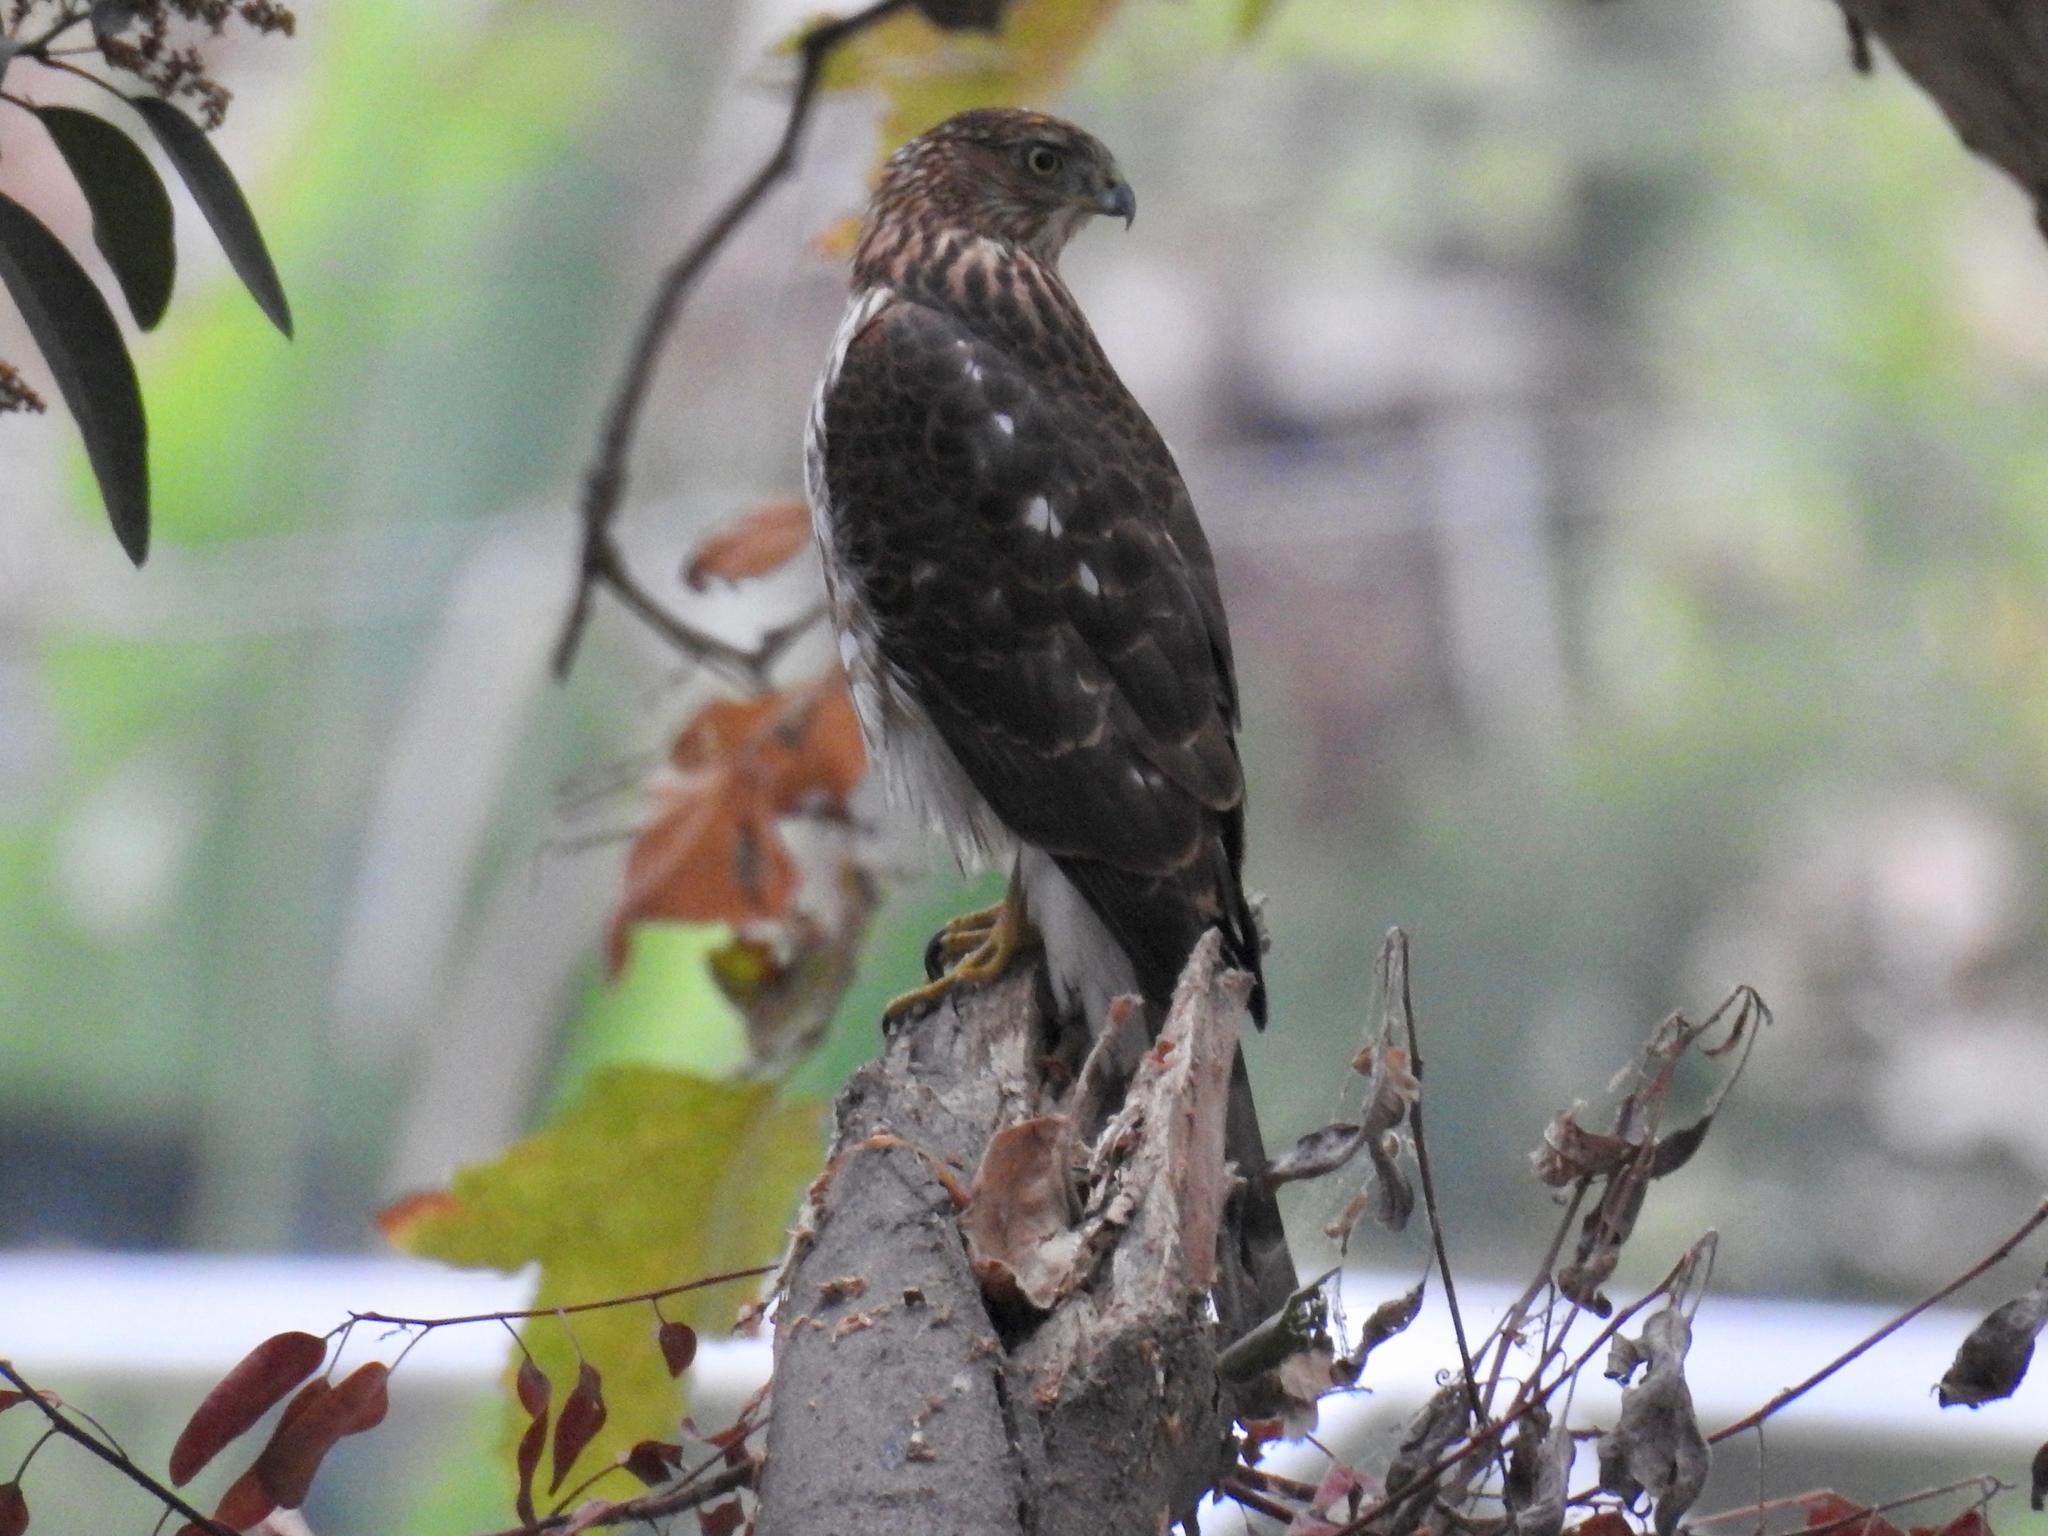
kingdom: Animalia
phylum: Chordata
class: Aves
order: Accipitriformes
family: Accipitridae
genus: Accipiter
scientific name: Accipiter cooperii
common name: Cooper's hawk
